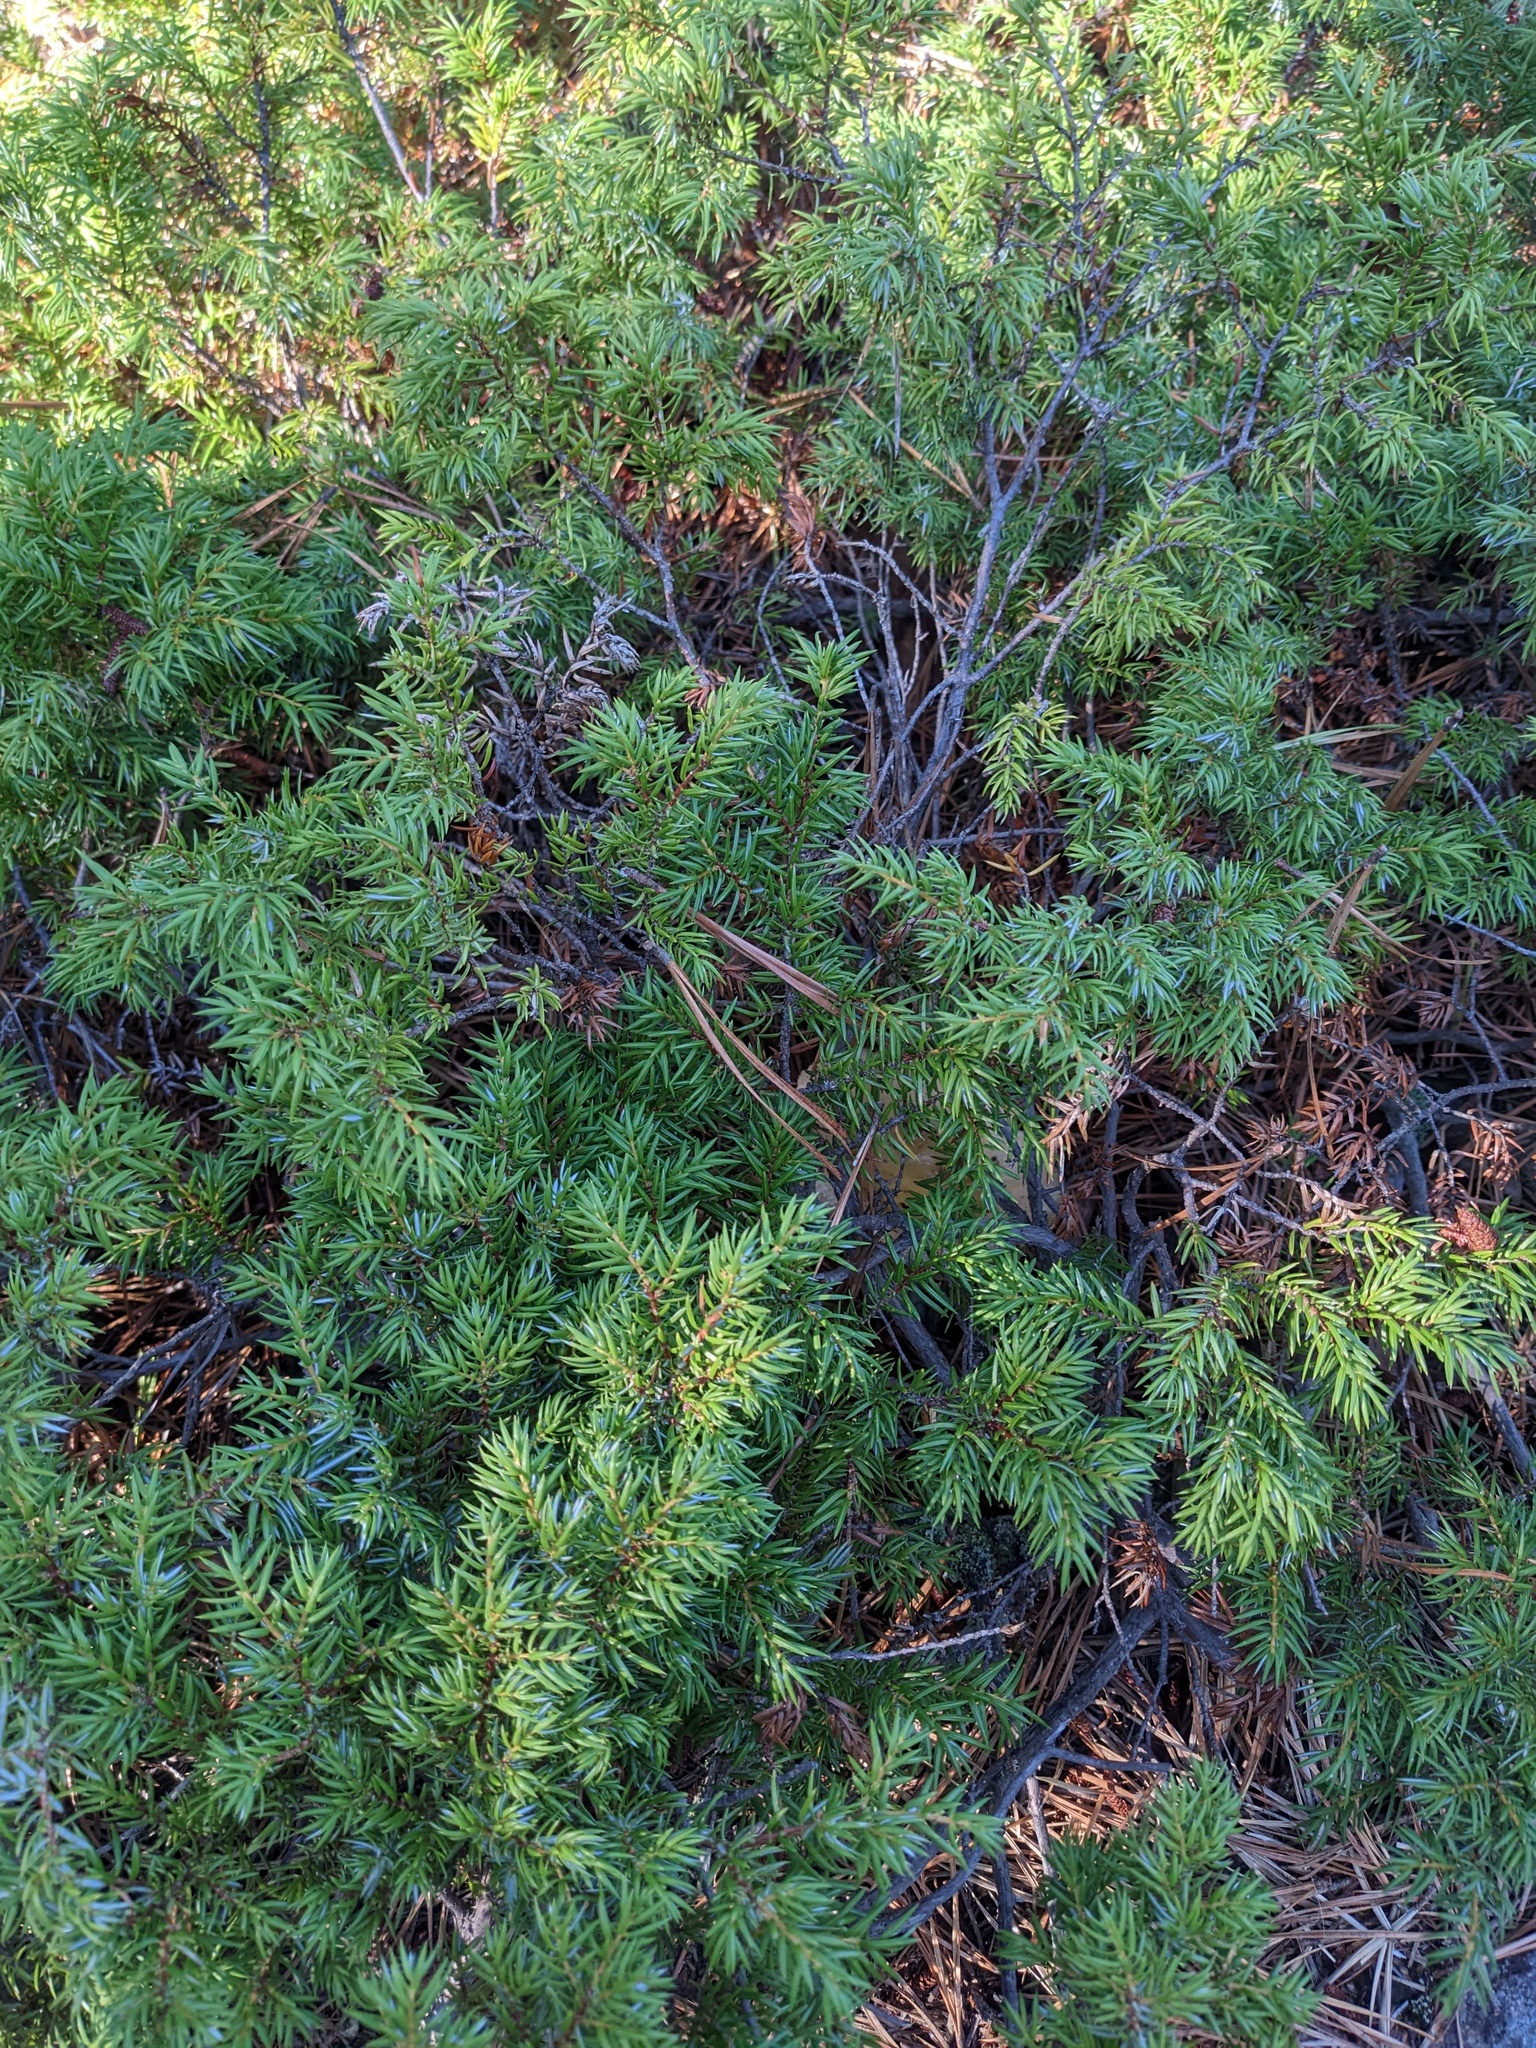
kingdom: Plantae
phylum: Tracheophyta
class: Pinopsida
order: Pinales
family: Cupressaceae
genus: Juniperus
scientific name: Juniperus communis
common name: Common juniper
